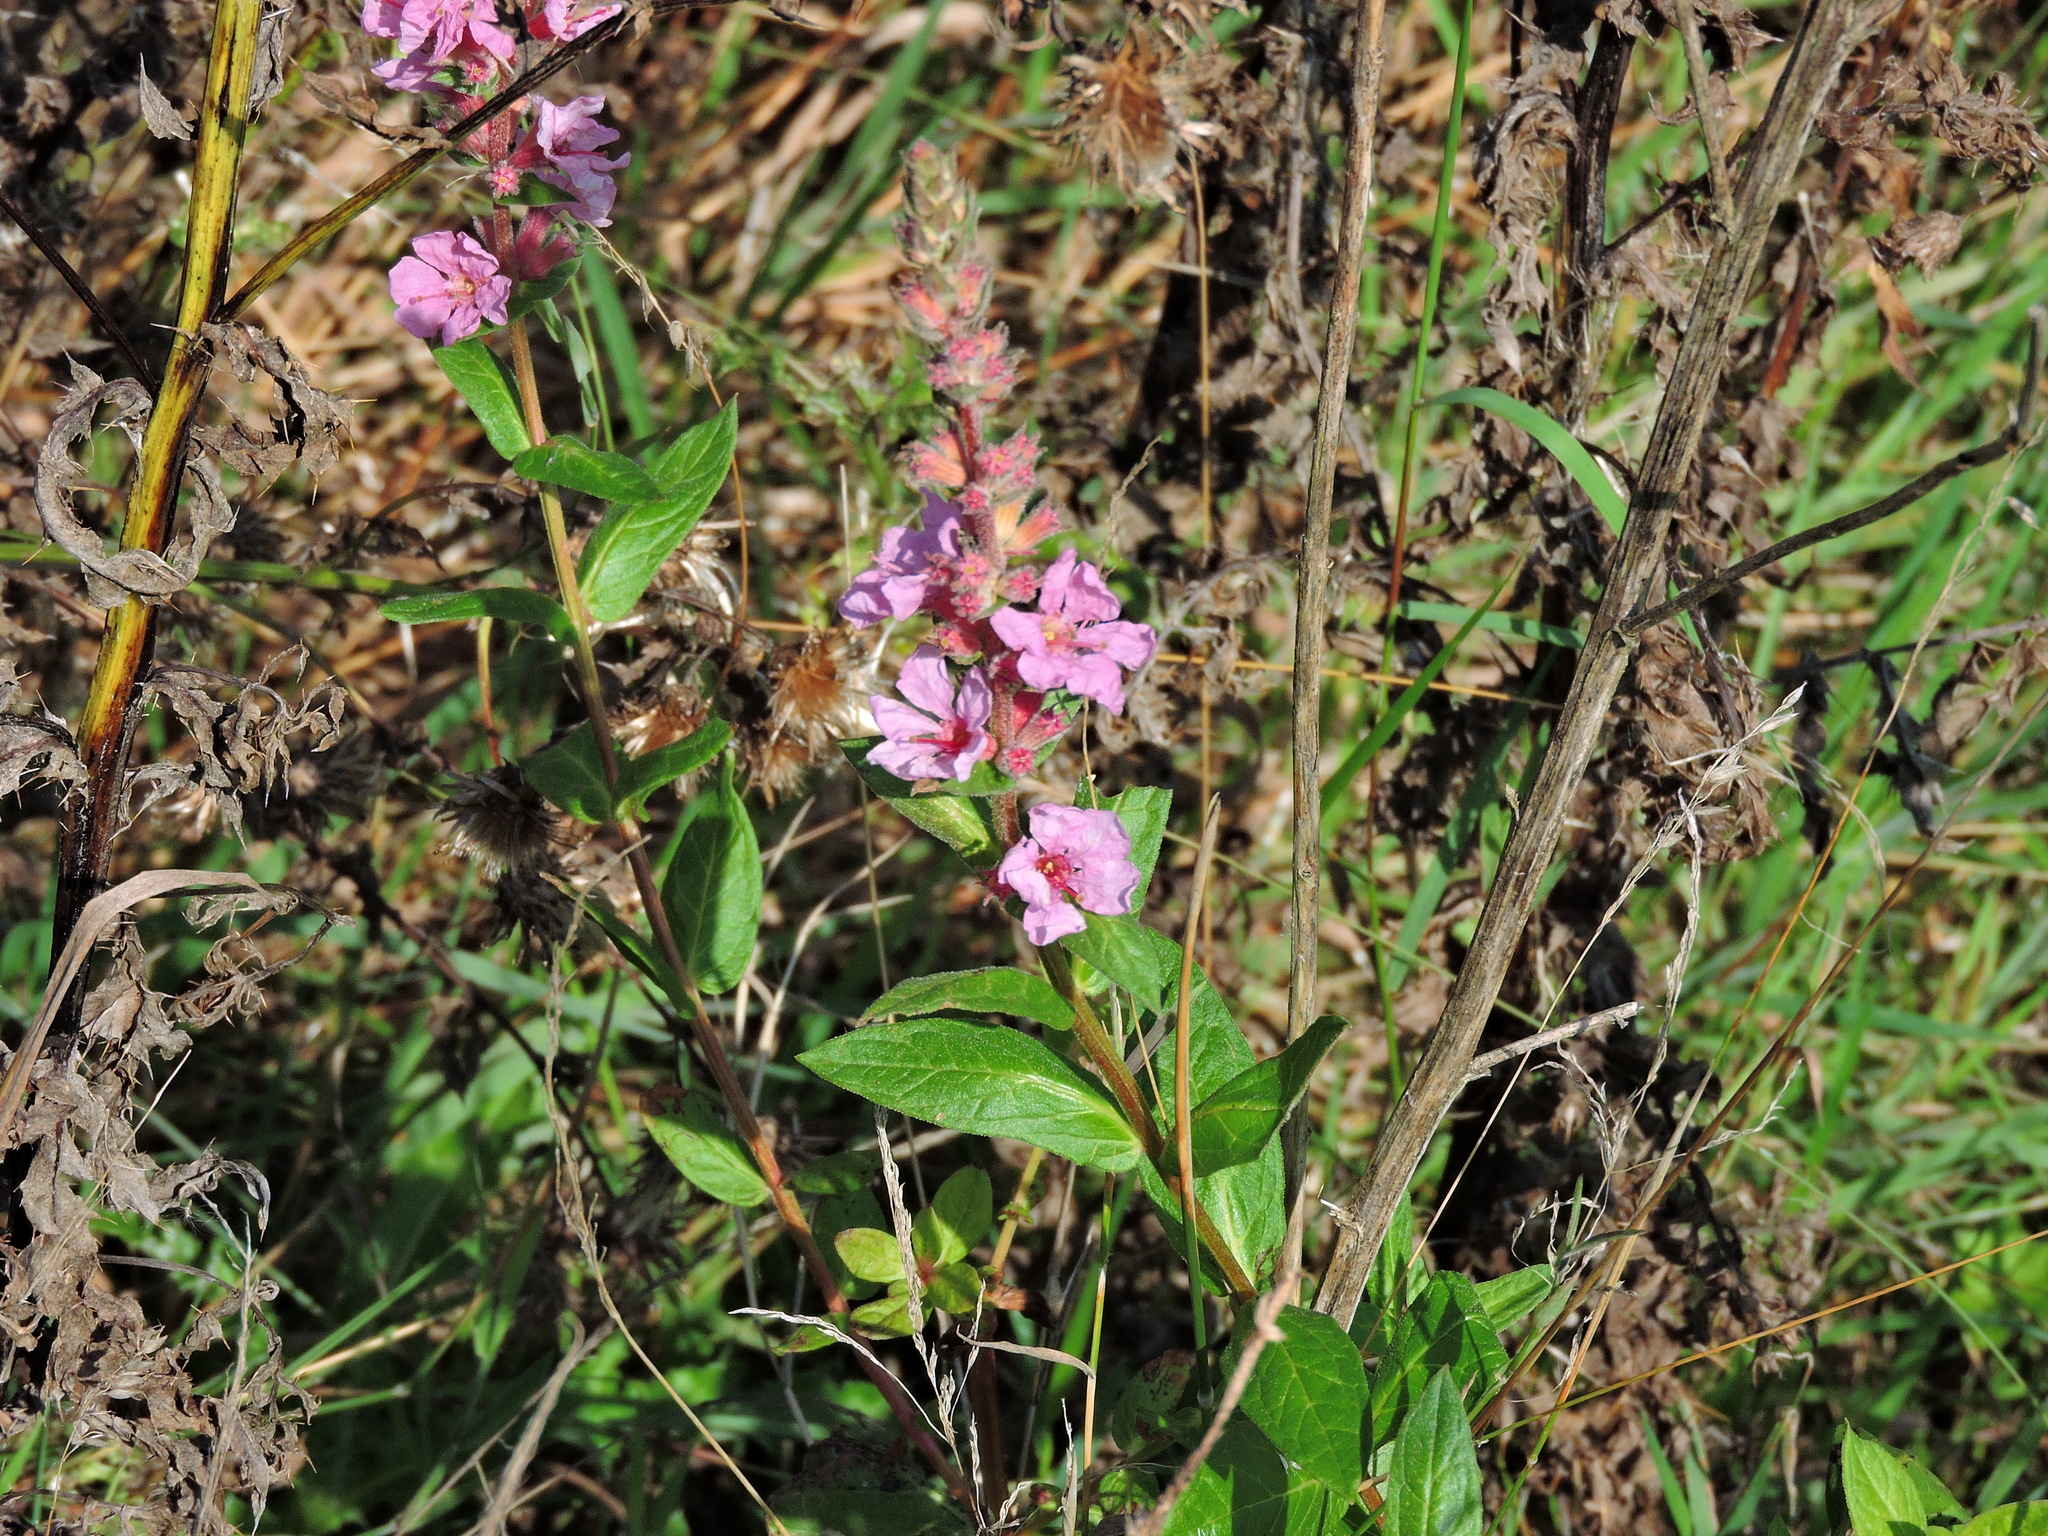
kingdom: Plantae
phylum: Tracheophyta
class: Magnoliopsida
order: Myrtales
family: Lythraceae
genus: Lythrum
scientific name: Lythrum salicaria
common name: Purple loosestrife
